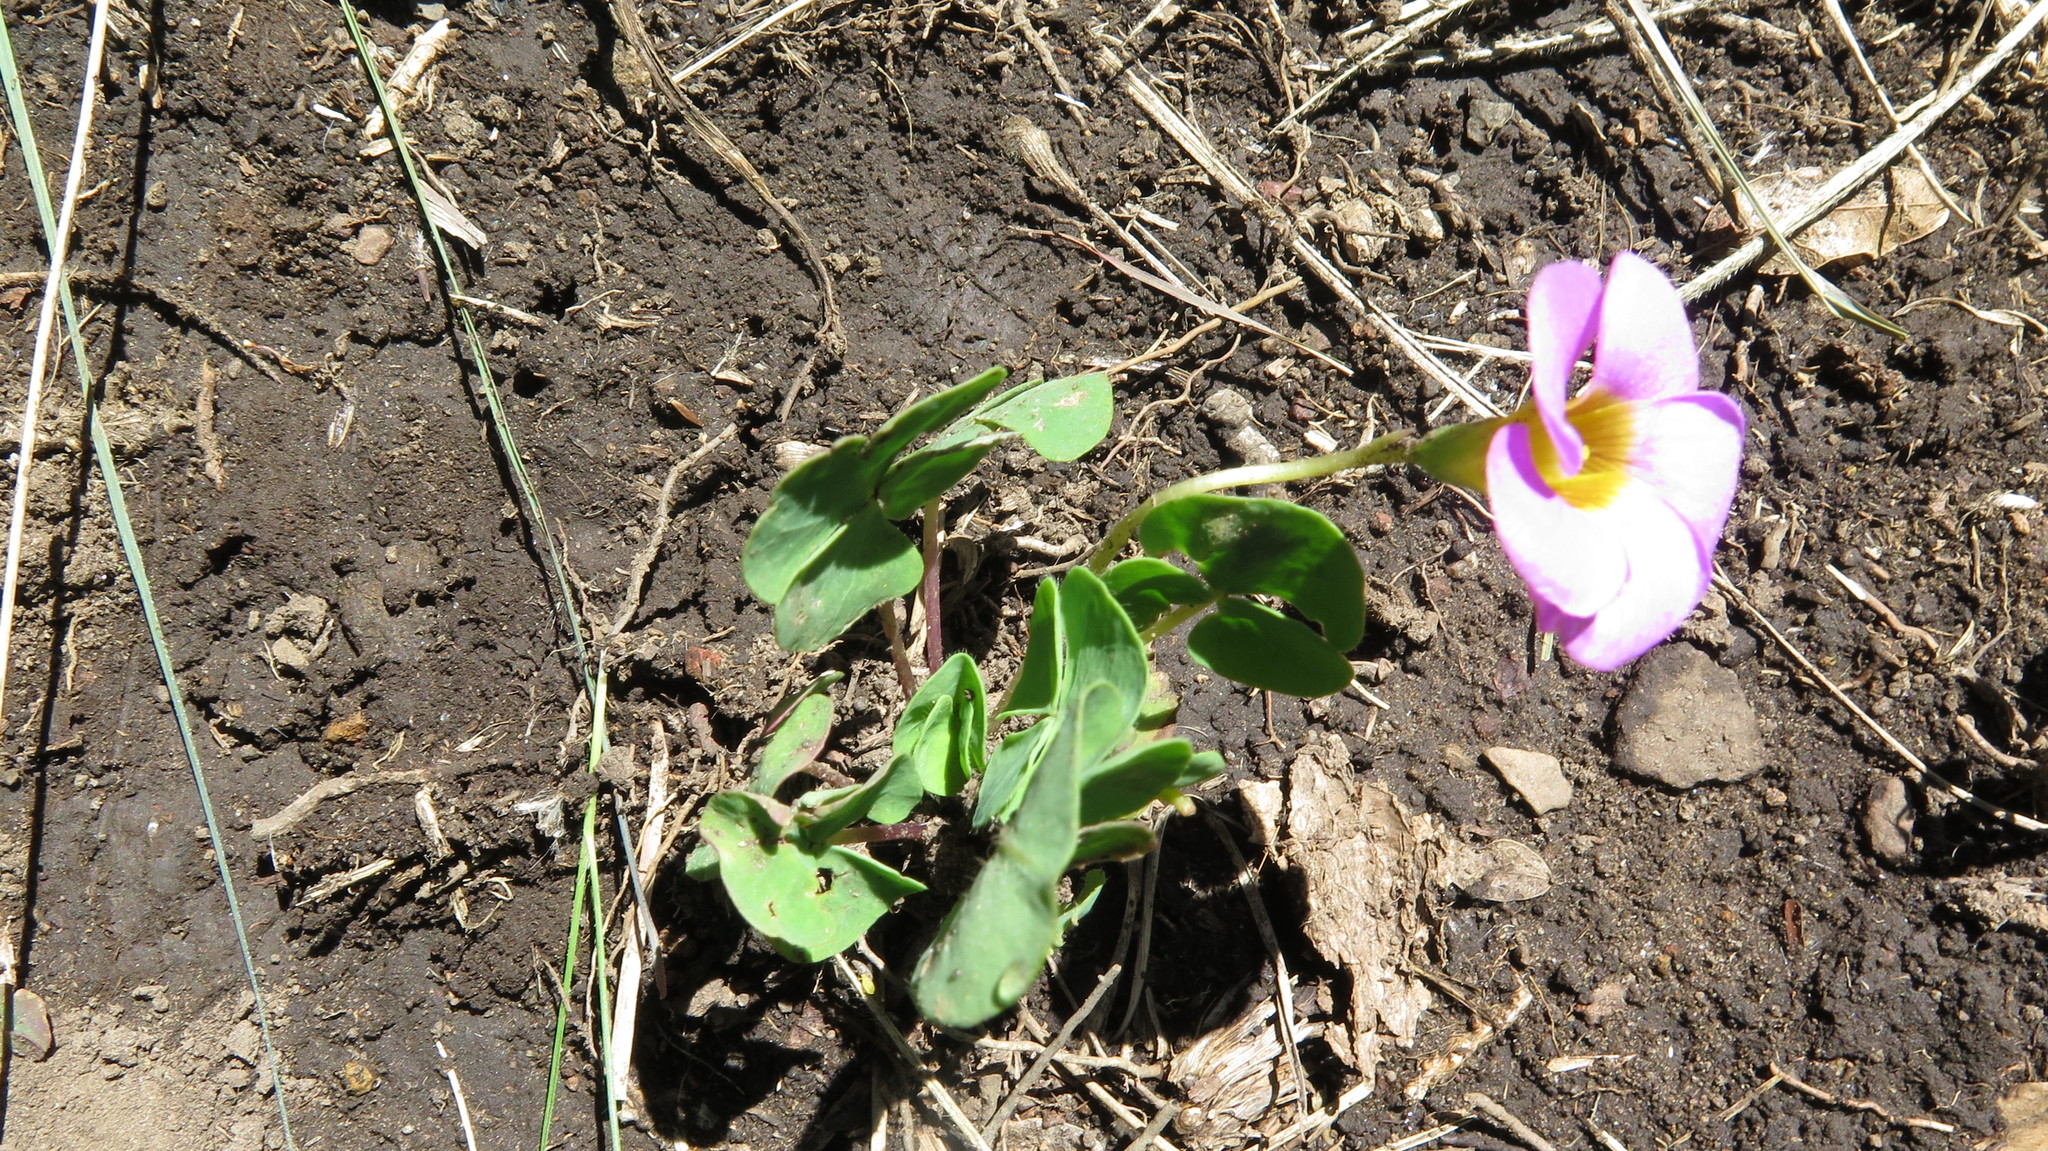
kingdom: Plantae
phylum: Tracheophyta
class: Magnoliopsida
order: Oxalidales
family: Oxalidaceae
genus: Oxalis
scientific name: Oxalis obliquifolia
